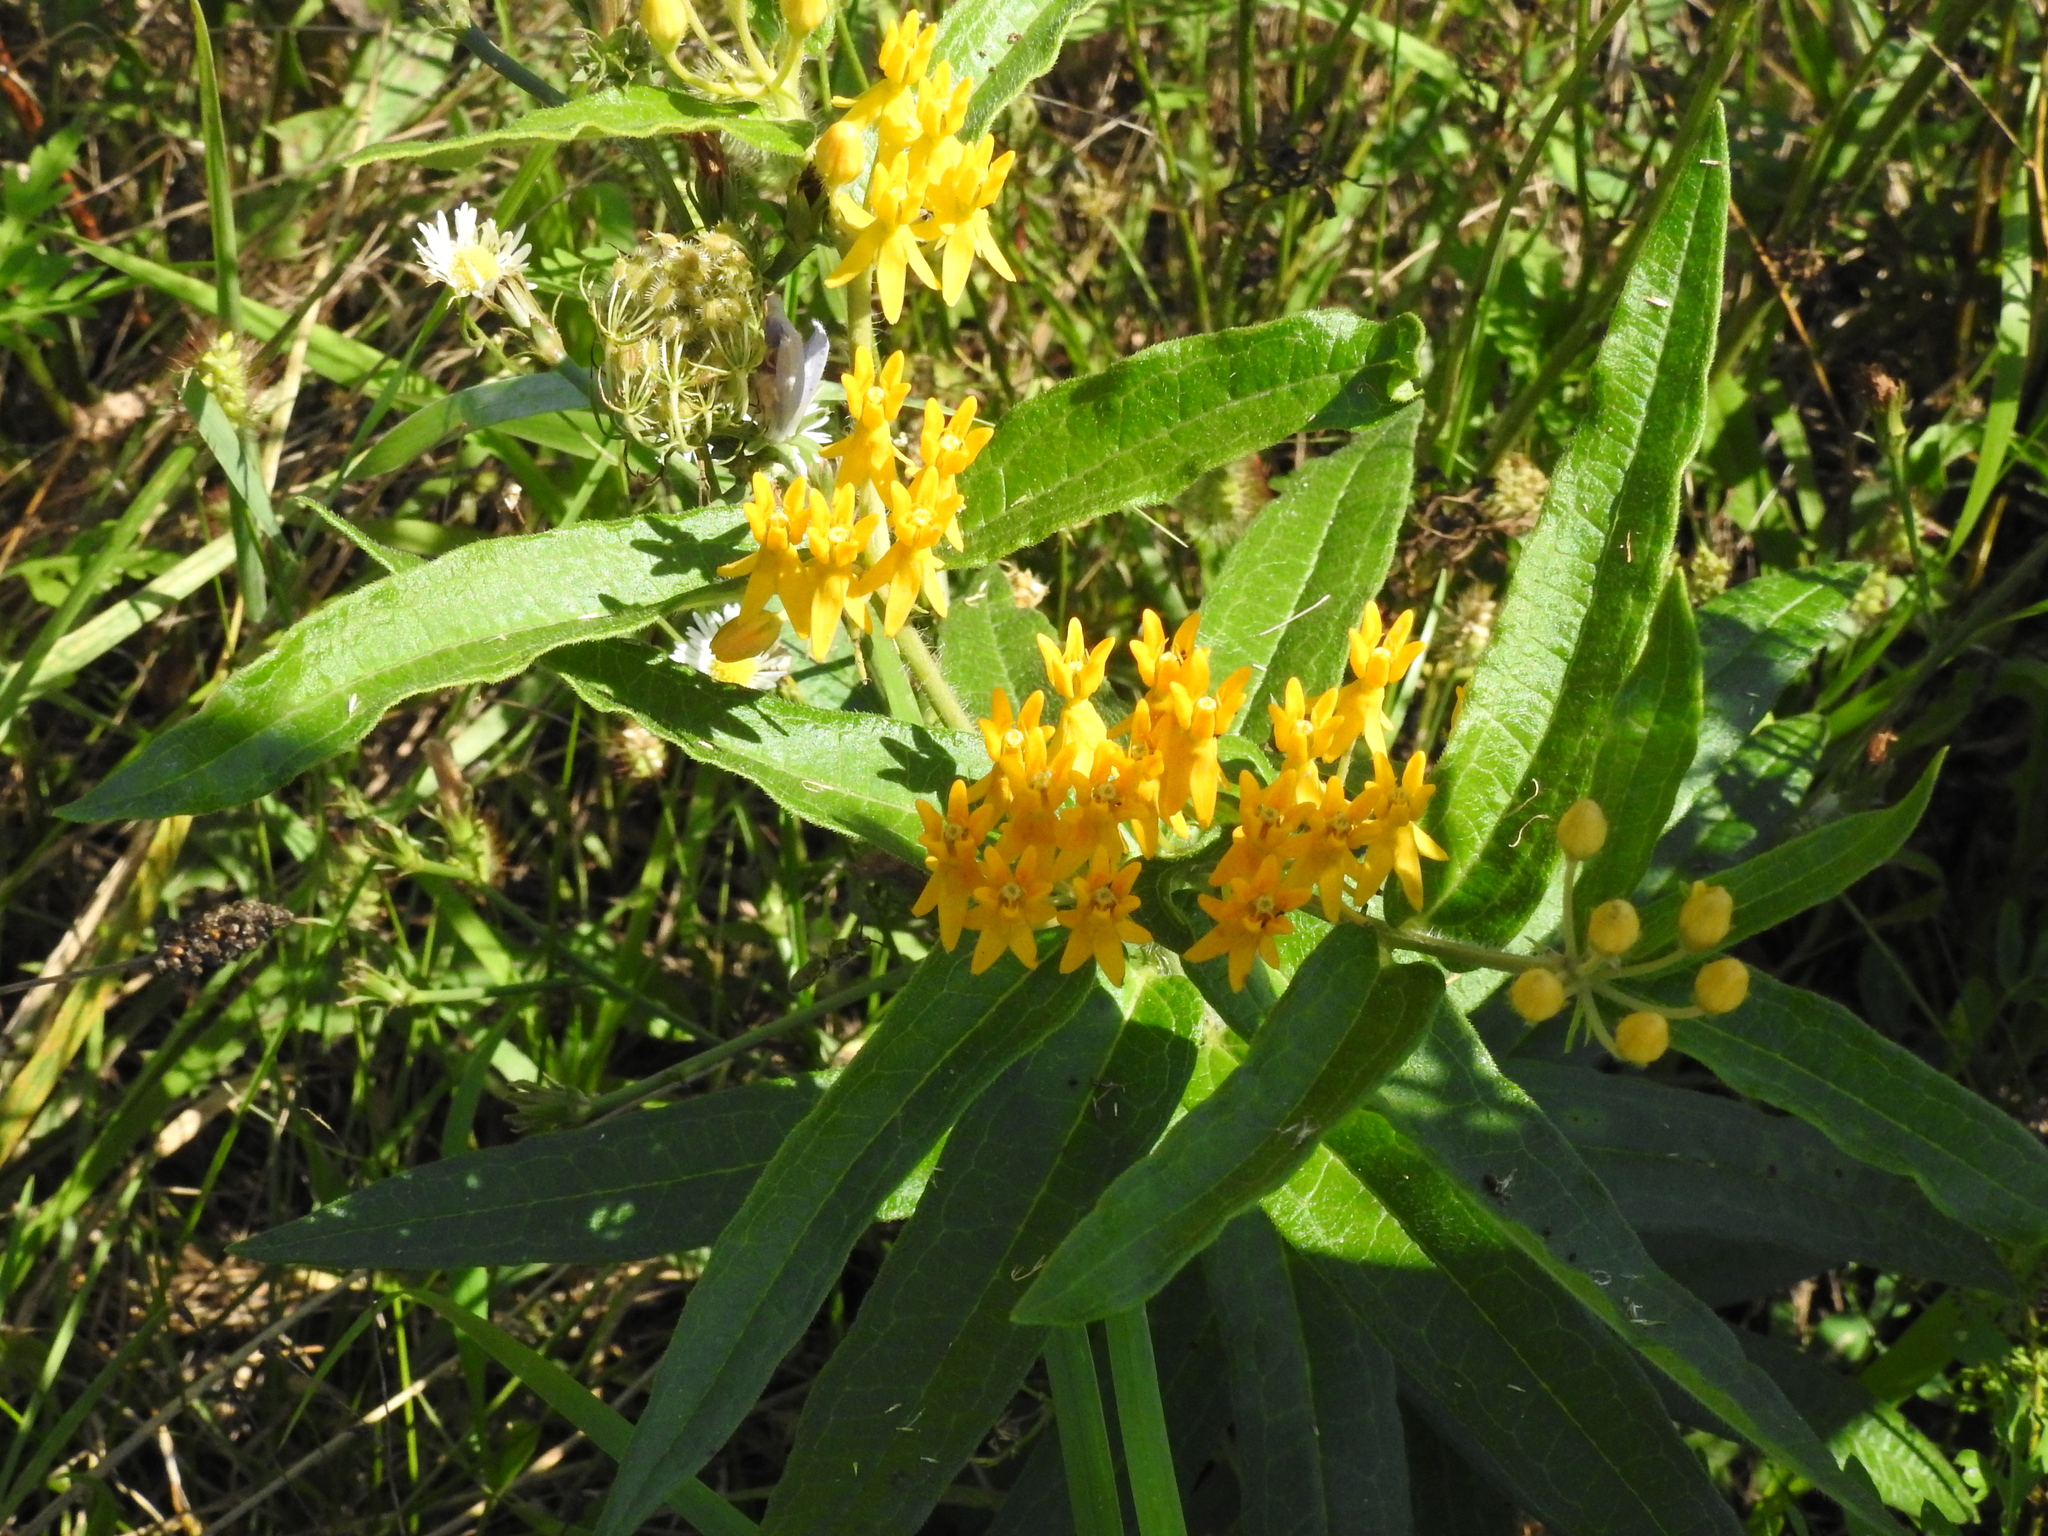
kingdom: Plantae
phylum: Tracheophyta
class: Magnoliopsida
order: Gentianales
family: Apocynaceae
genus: Asclepias
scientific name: Asclepias tuberosa
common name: Butterfly milkweed
